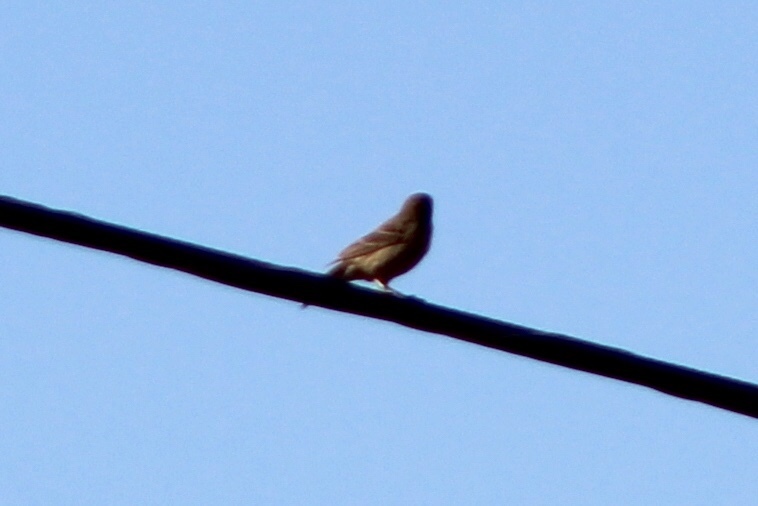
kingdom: Animalia
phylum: Chordata
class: Aves
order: Passeriformes
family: Fringillidae
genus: Haemorhous
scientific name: Haemorhous mexicanus
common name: House finch
